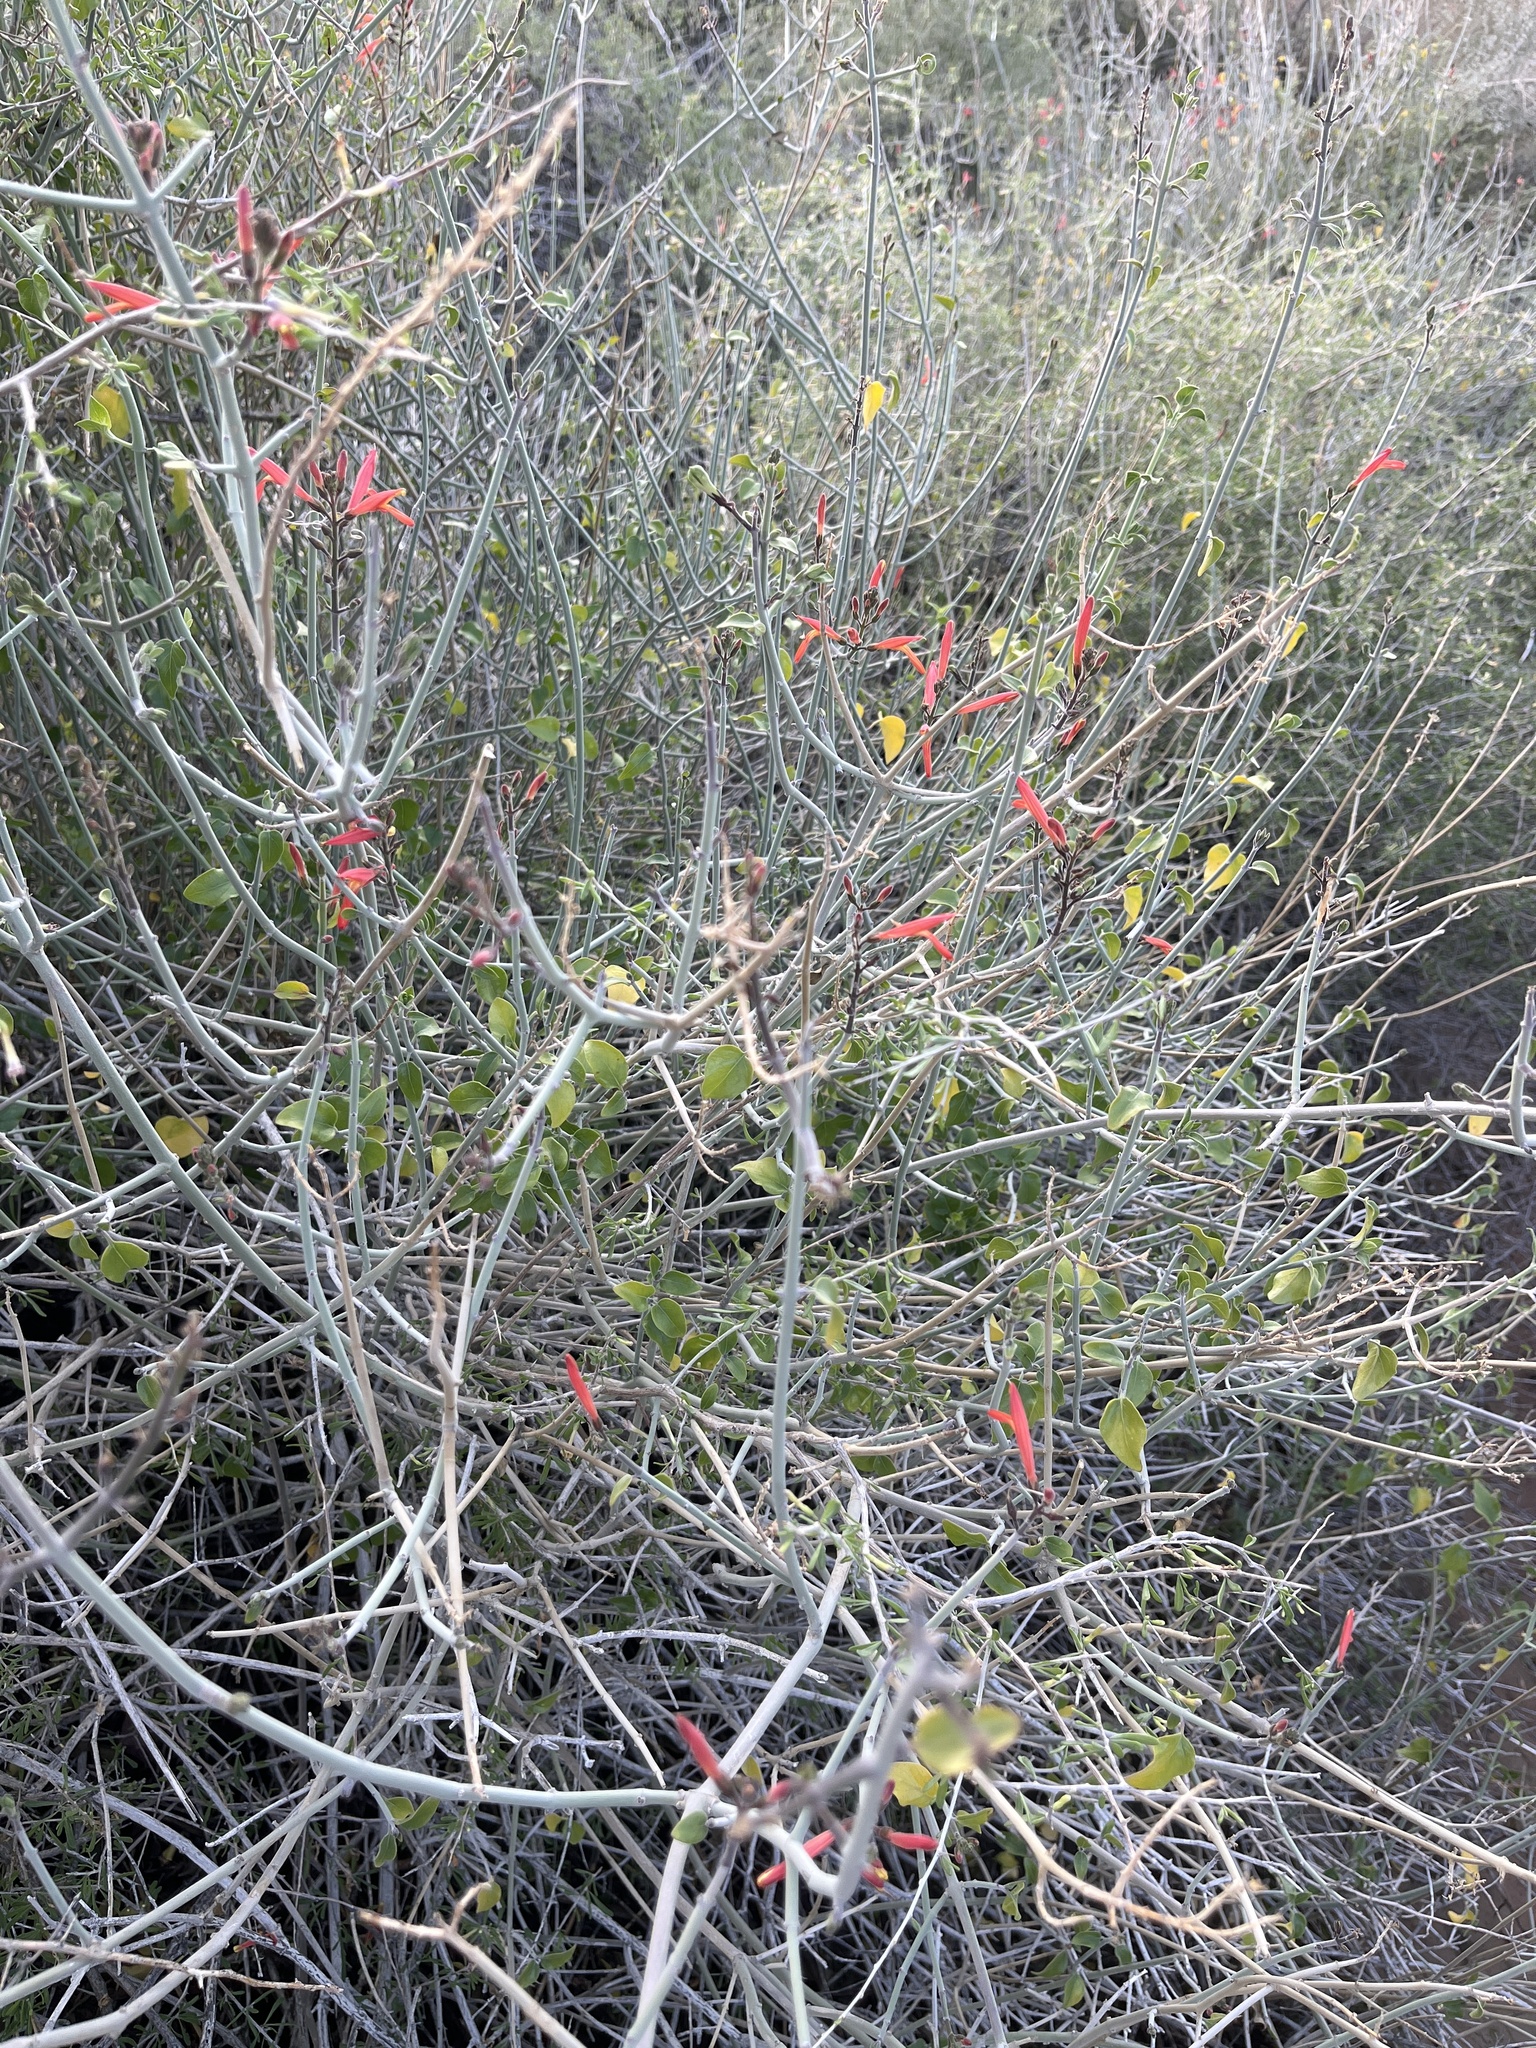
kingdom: Plantae
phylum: Tracheophyta
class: Magnoliopsida
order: Lamiales
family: Acanthaceae
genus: Justicia
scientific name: Justicia californica
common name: Chuparosa-honeysuckle
